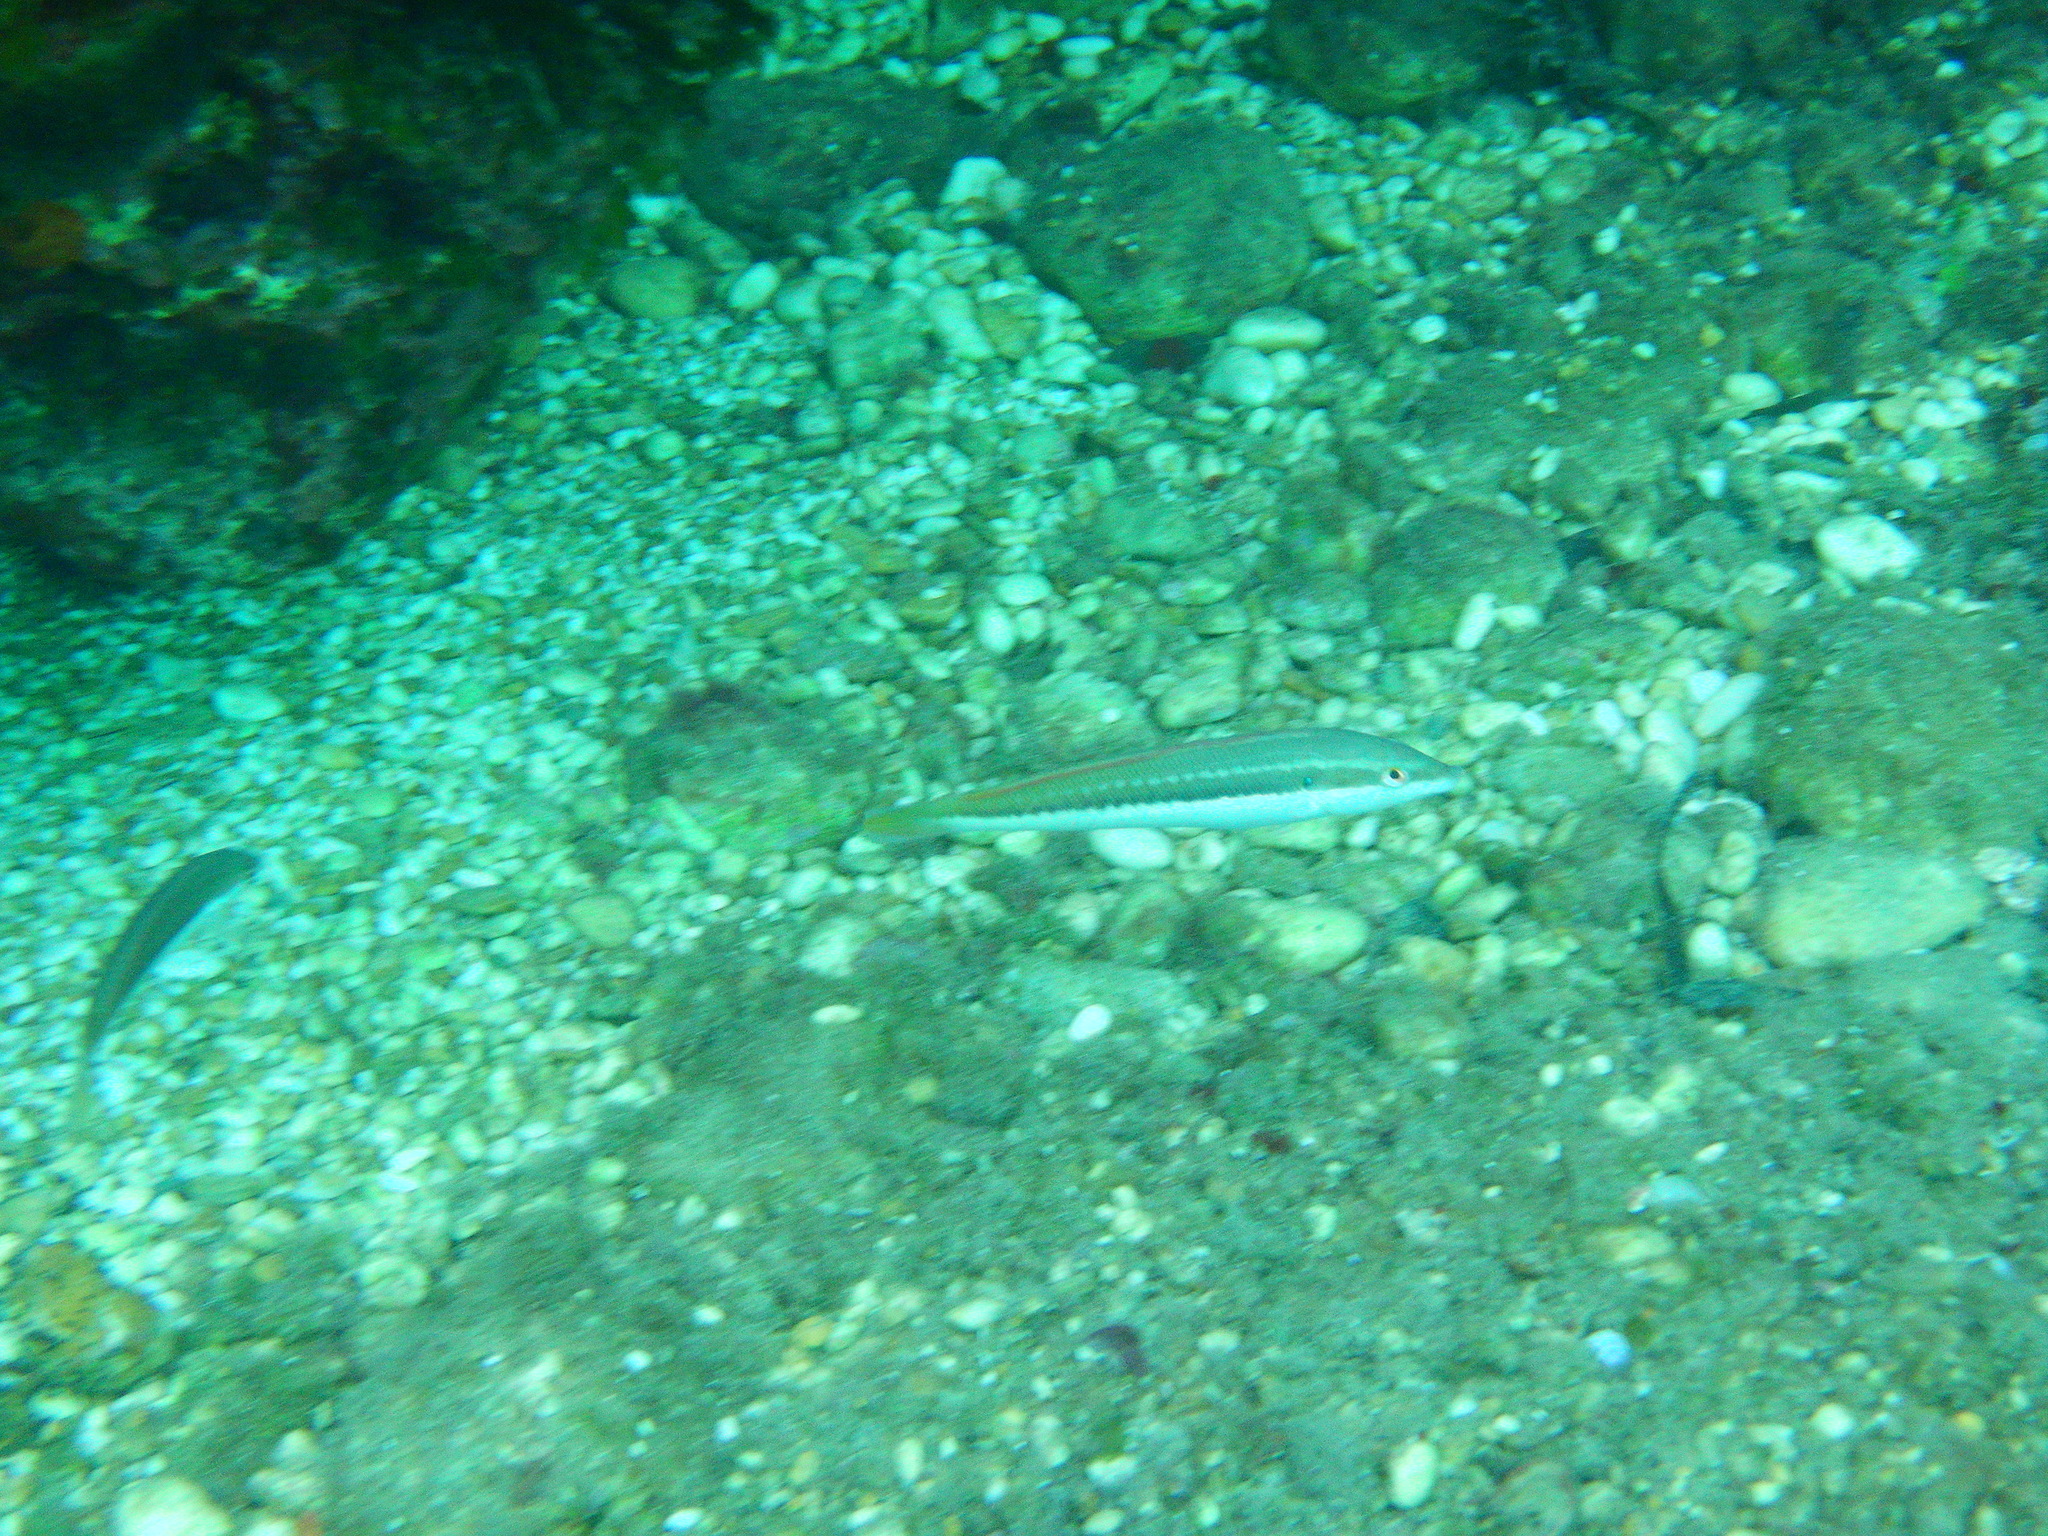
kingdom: Animalia
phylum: Chordata
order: Perciformes
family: Labridae
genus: Coris
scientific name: Coris julis
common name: Rainbow wrasse
